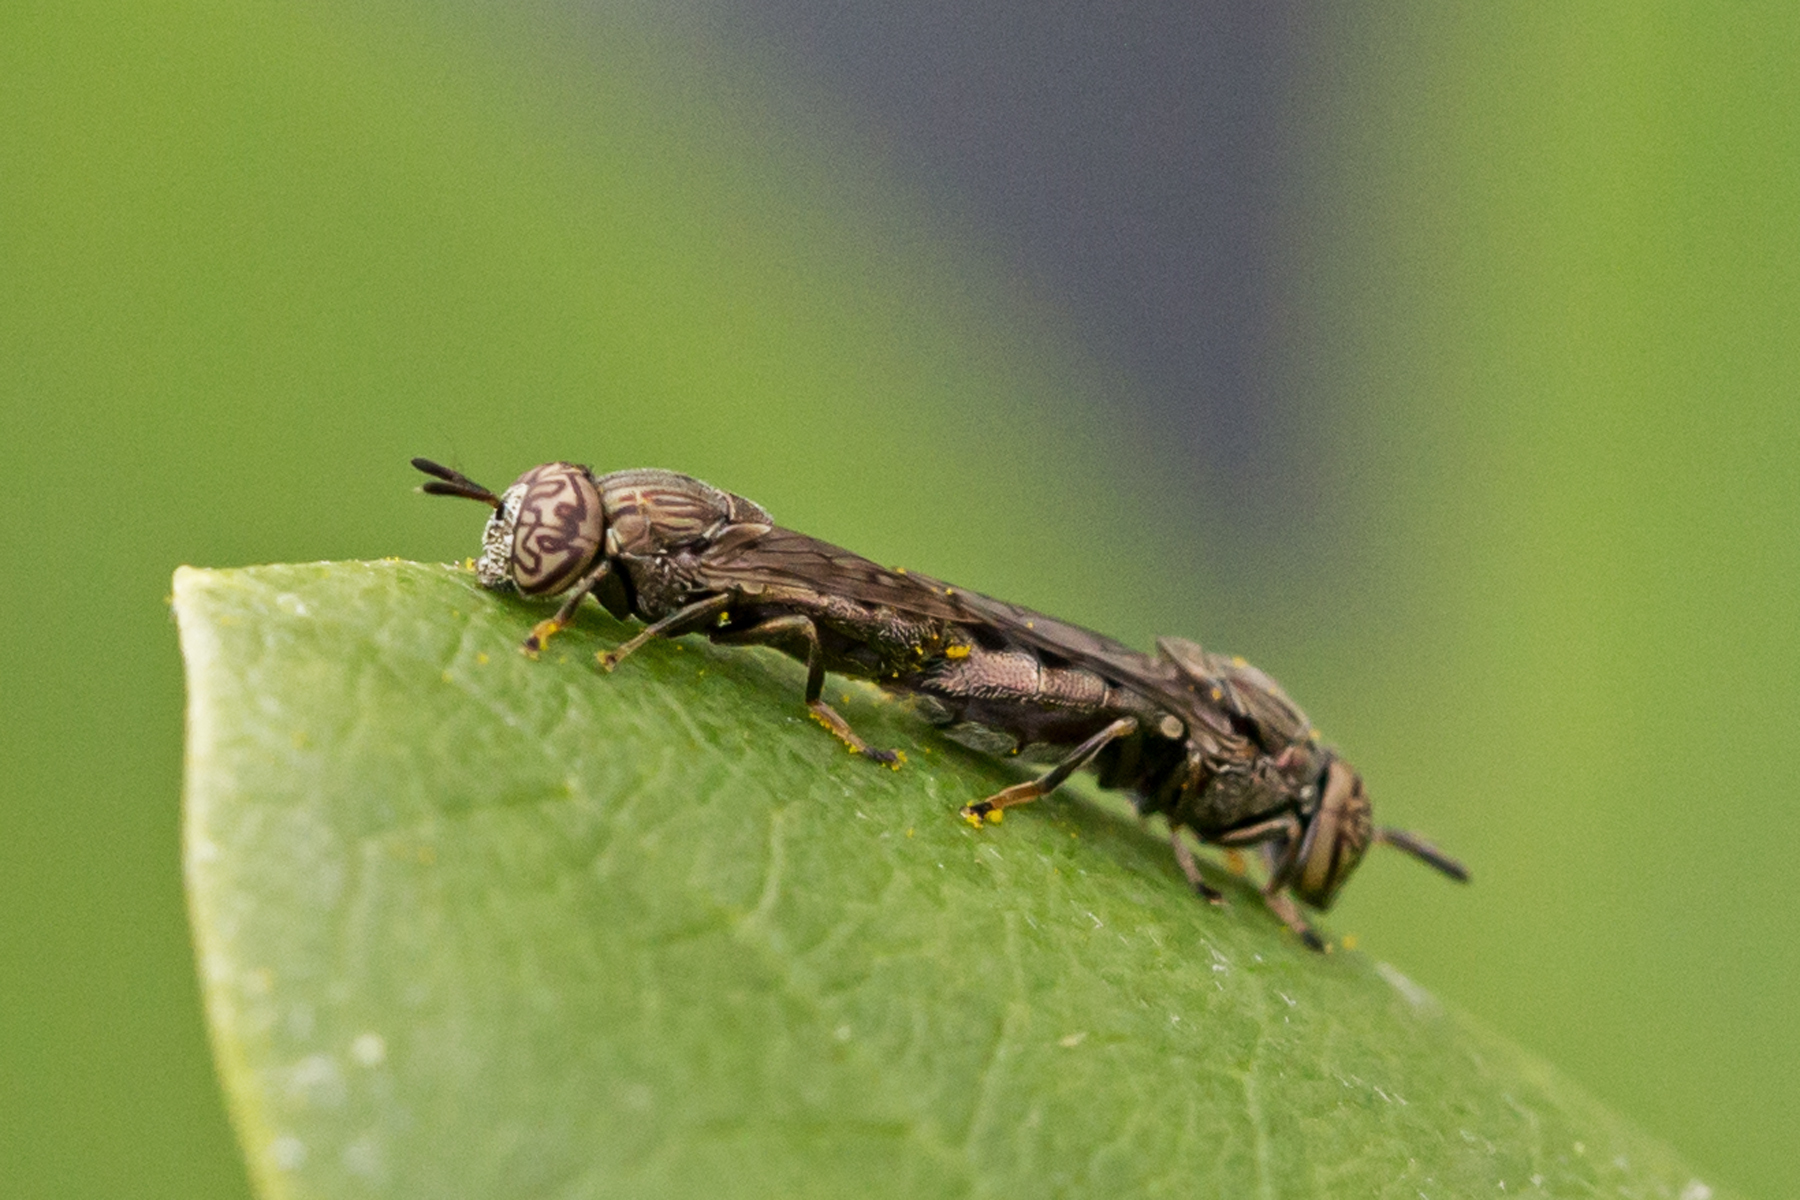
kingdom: Animalia
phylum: Arthropoda
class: Insecta
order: Diptera
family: Syrphidae
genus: Orthonevra
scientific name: Orthonevra nitida
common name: Wavy mucksucker
